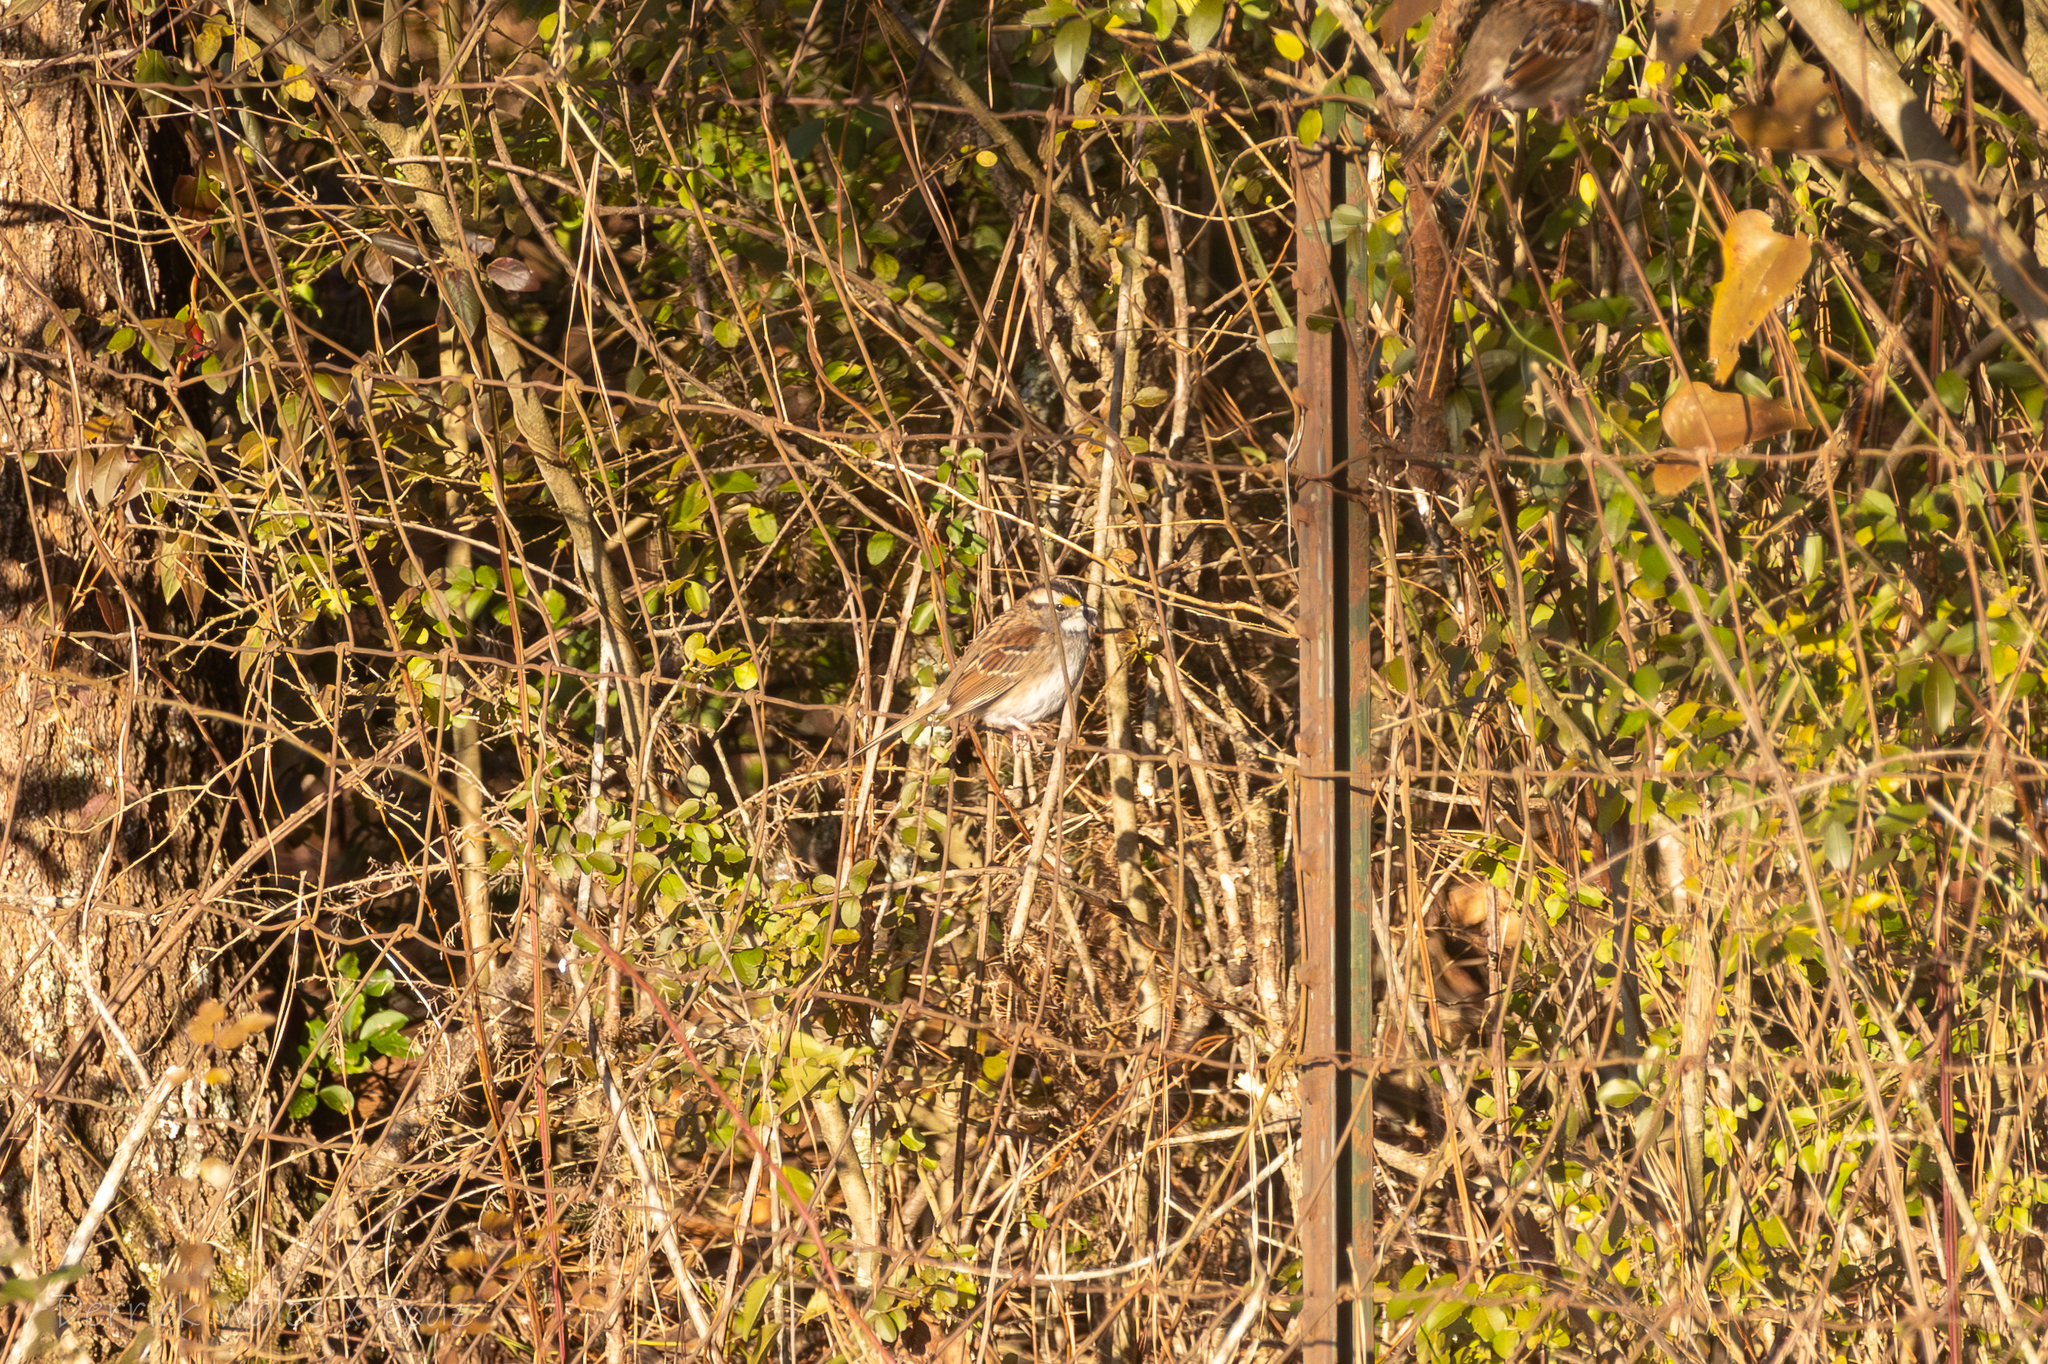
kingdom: Animalia
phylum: Chordata
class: Aves
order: Passeriformes
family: Passerellidae
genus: Zonotrichia
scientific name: Zonotrichia albicollis
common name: White-throated sparrow
